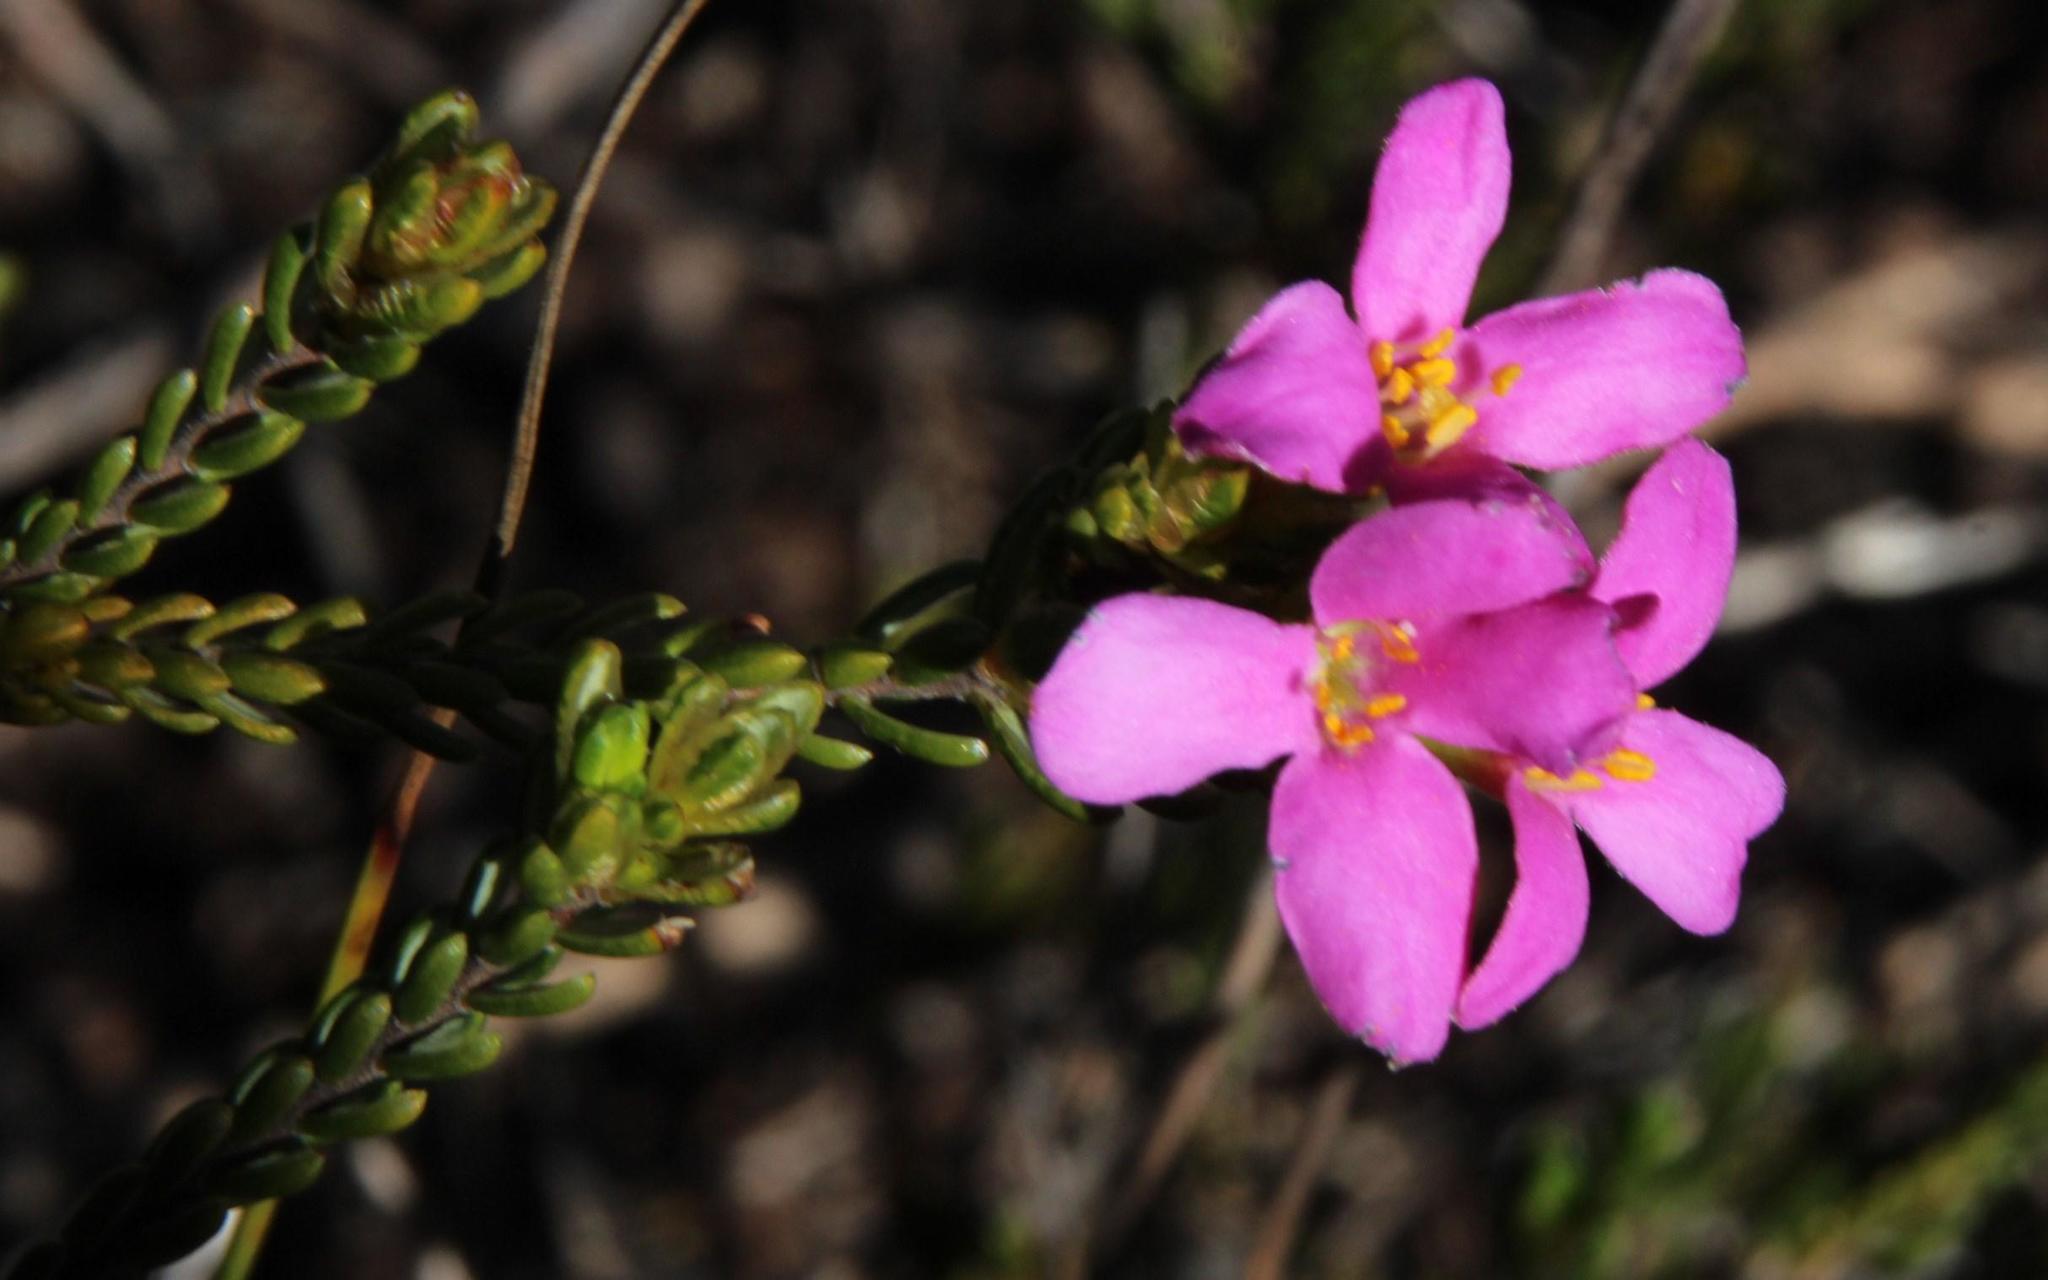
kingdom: Plantae
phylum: Tracheophyta
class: Magnoliopsida
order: Malvales
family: Thymelaeaceae
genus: Lachnaea
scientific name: Lachnaea grandiflora
